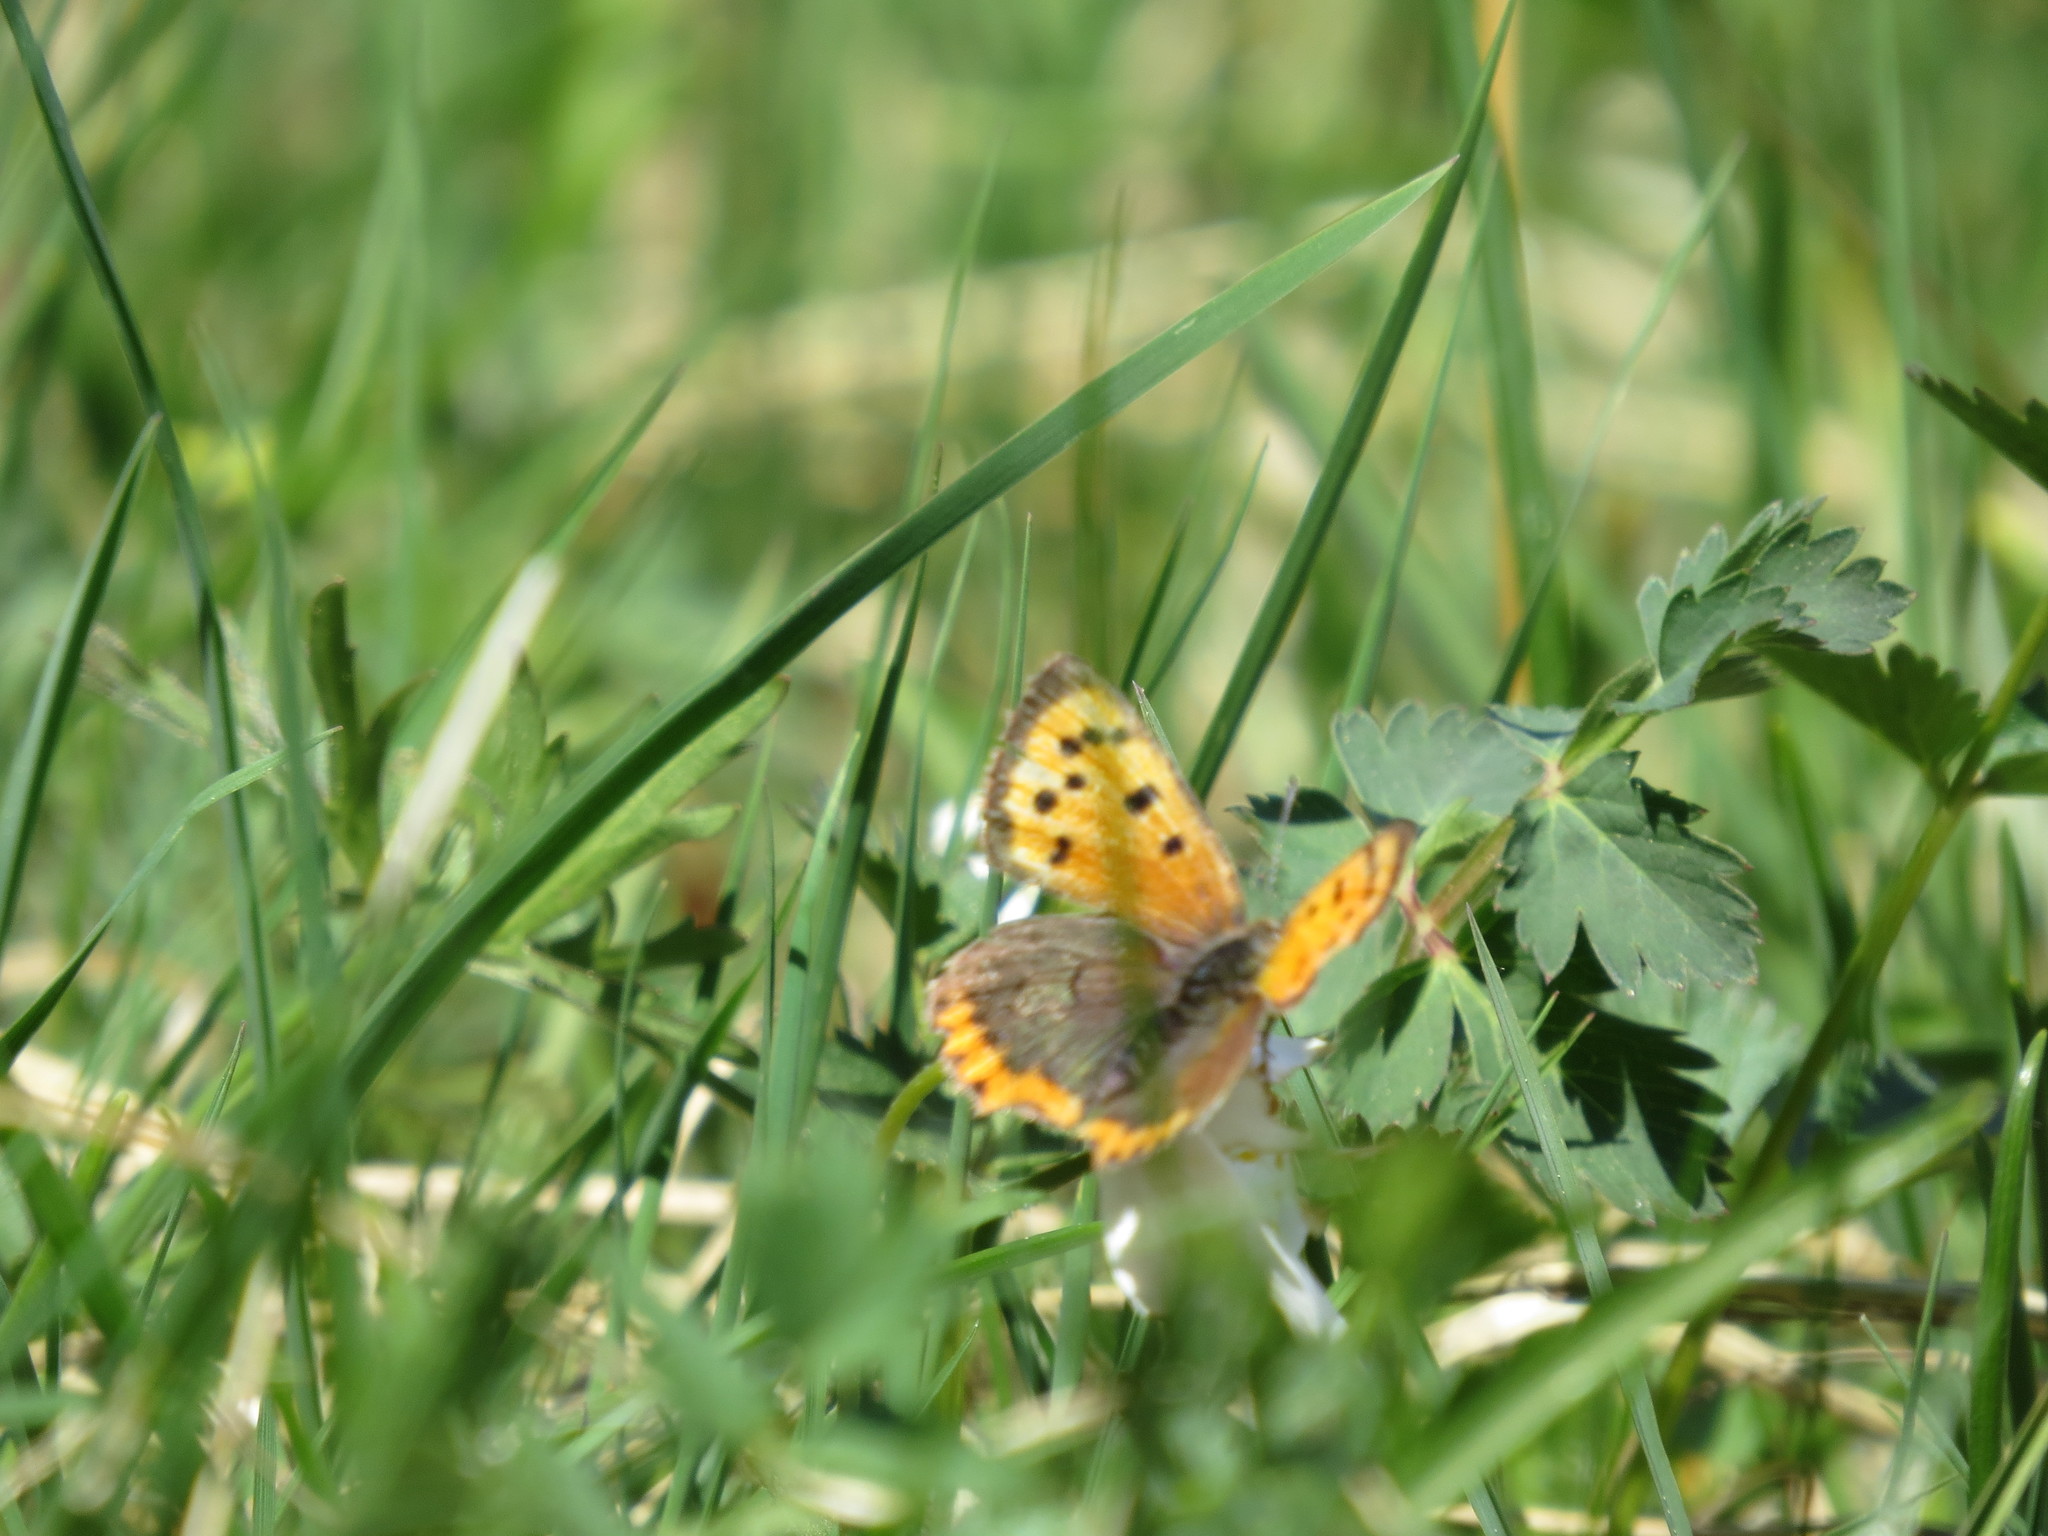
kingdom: Animalia
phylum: Arthropoda
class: Insecta
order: Lepidoptera
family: Lycaenidae
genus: Lycaena
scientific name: Lycaena phlaeas
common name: Small copper
